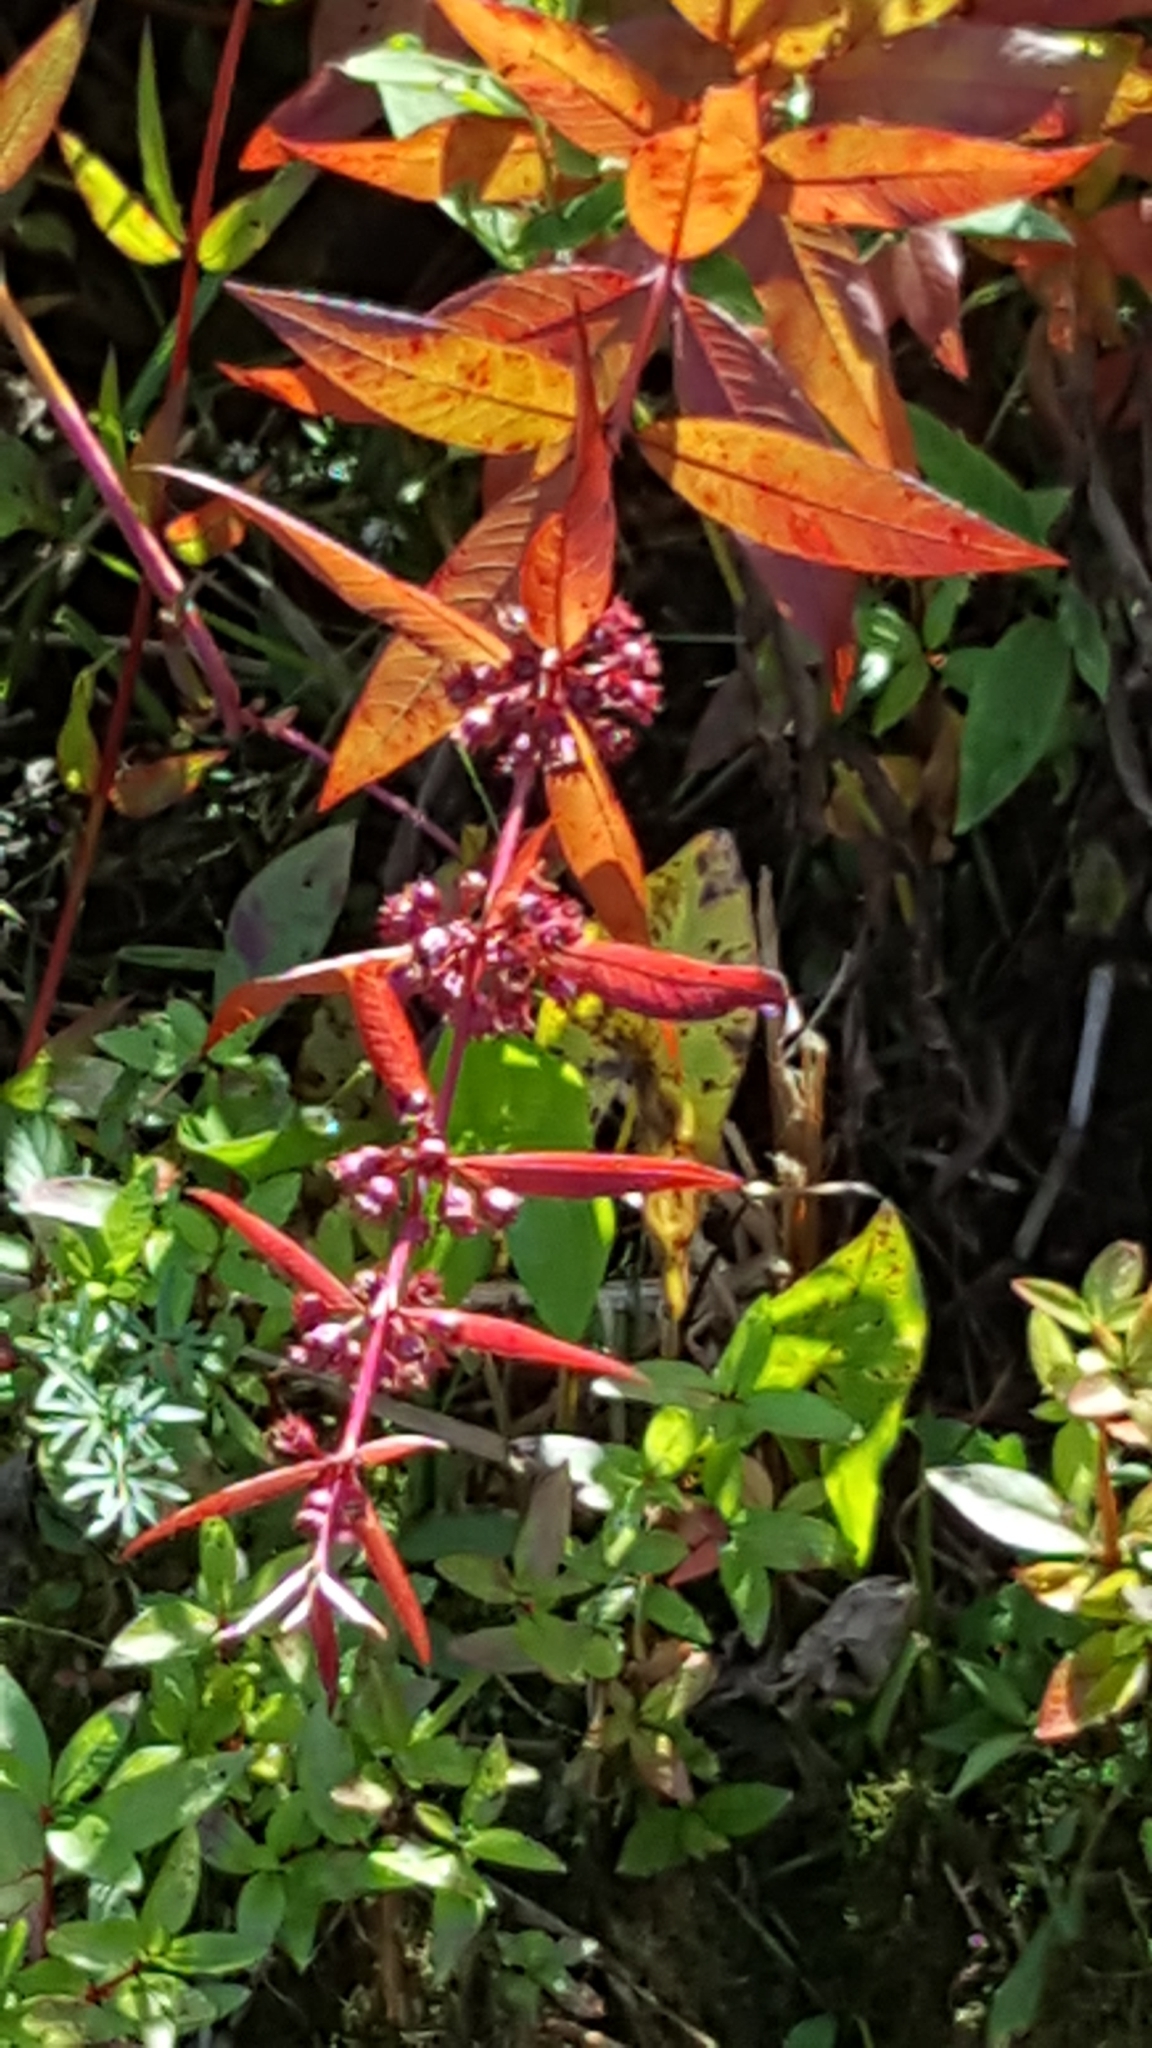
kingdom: Plantae
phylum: Tracheophyta
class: Magnoliopsida
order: Myrtales
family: Lythraceae
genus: Decodon
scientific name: Decodon verticillatus
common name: Hairy swamp loosestrife
